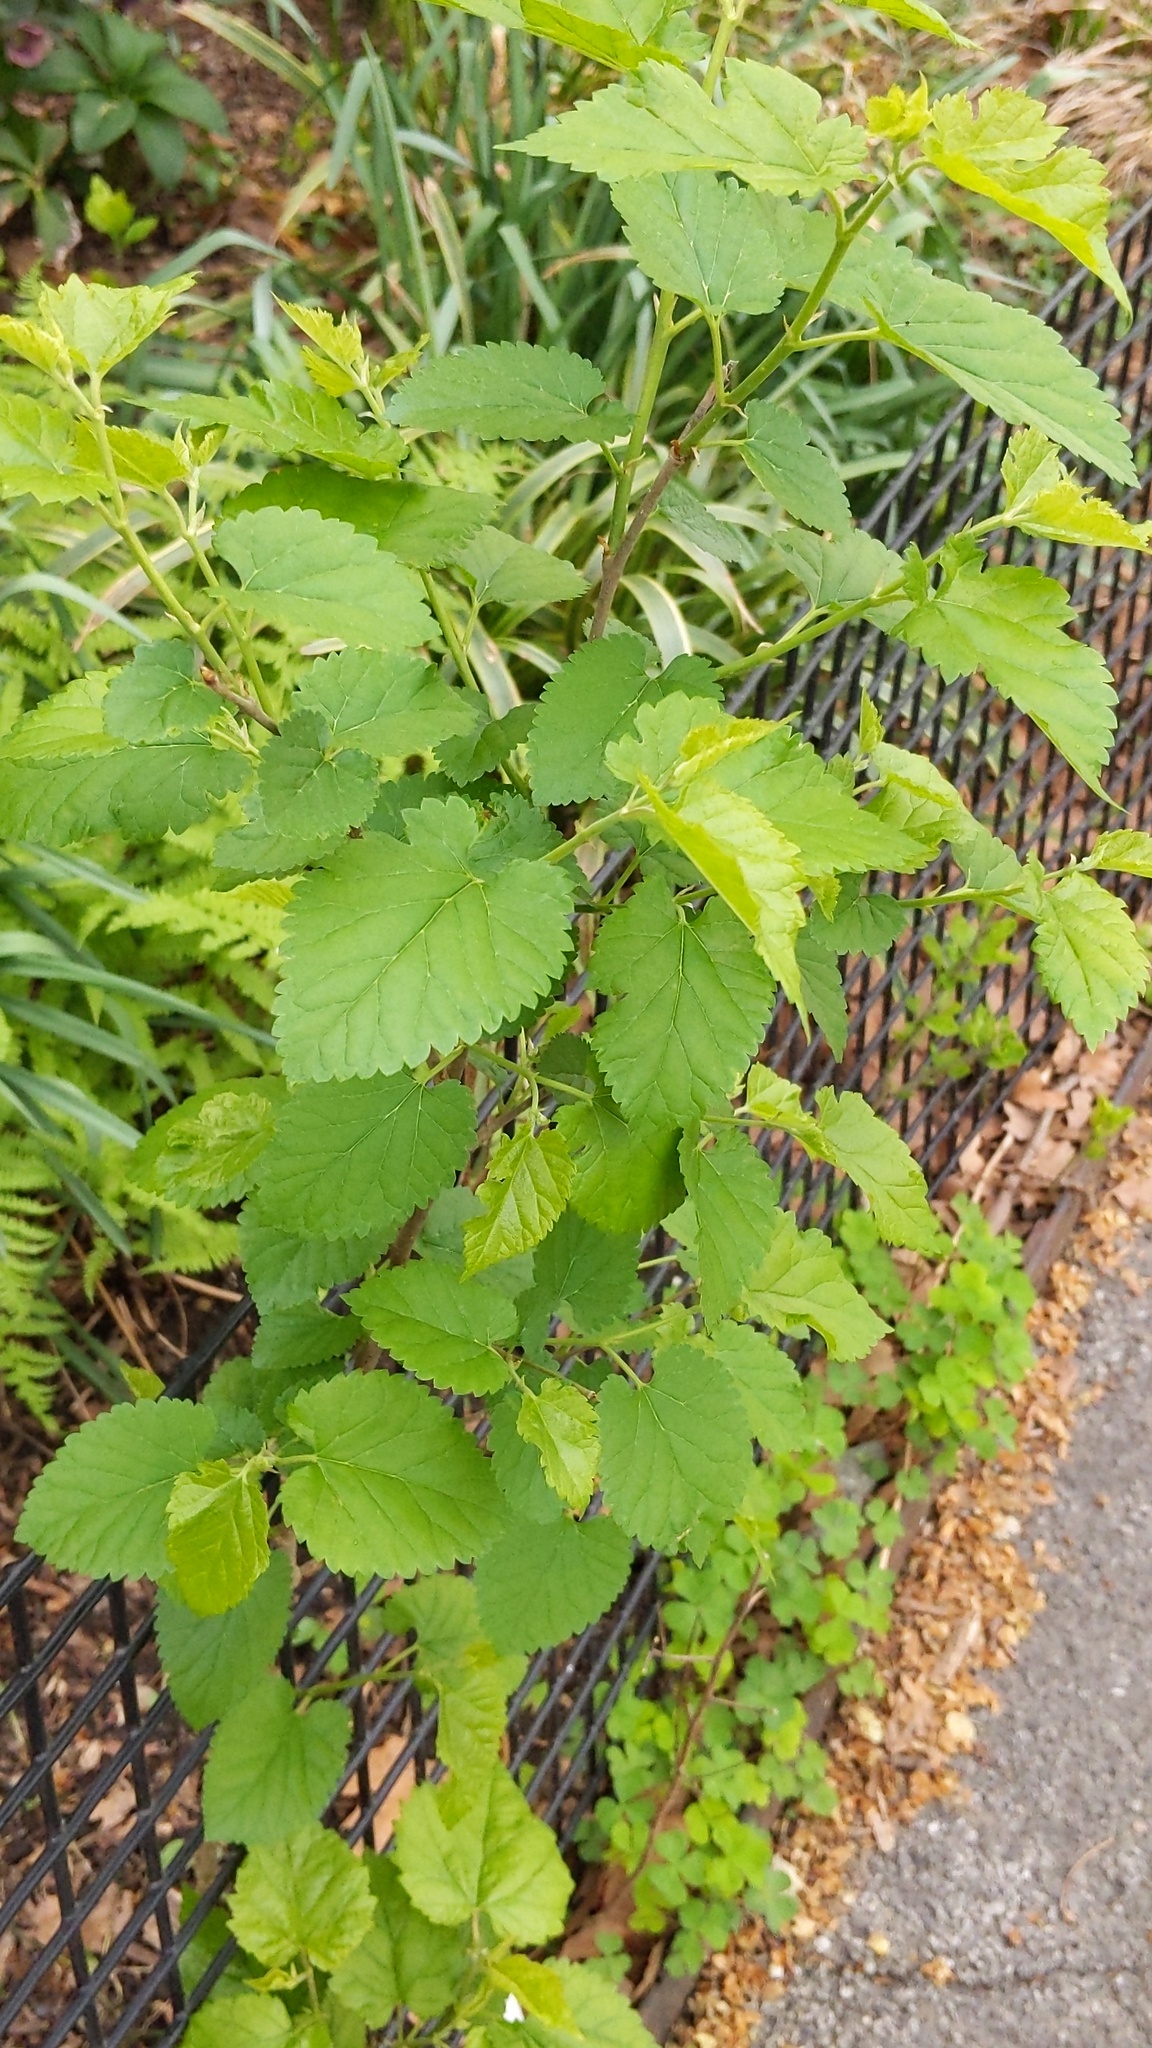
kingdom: Plantae
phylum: Tracheophyta
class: Magnoliopsida
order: Rosales
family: Moraceae
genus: Morus
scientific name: Morus alba
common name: White mulberry
